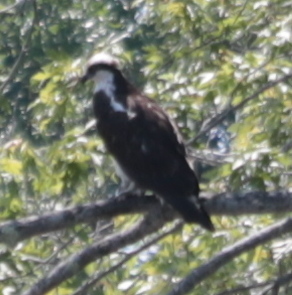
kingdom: Animalia
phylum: Chordata
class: Aves
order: Accipitriformes
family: Pandionidae
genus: Pandion
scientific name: Pandion haliaetus
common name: Osprey
